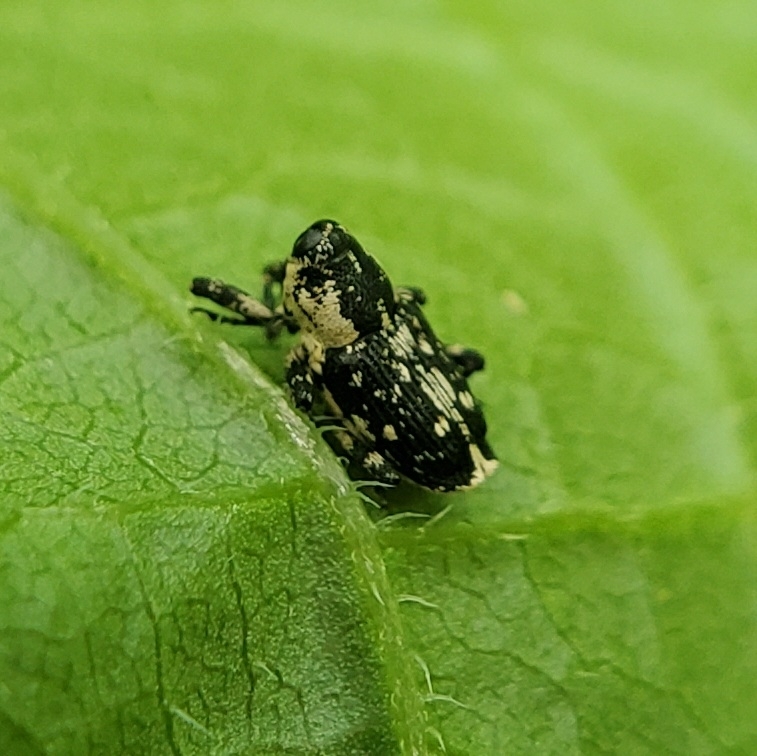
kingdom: Animalia
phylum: Arthropoda
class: Insecta
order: Coleoptera
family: Curculionidae
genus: Cylindrocopturus
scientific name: Cylindrocopturus quercus
